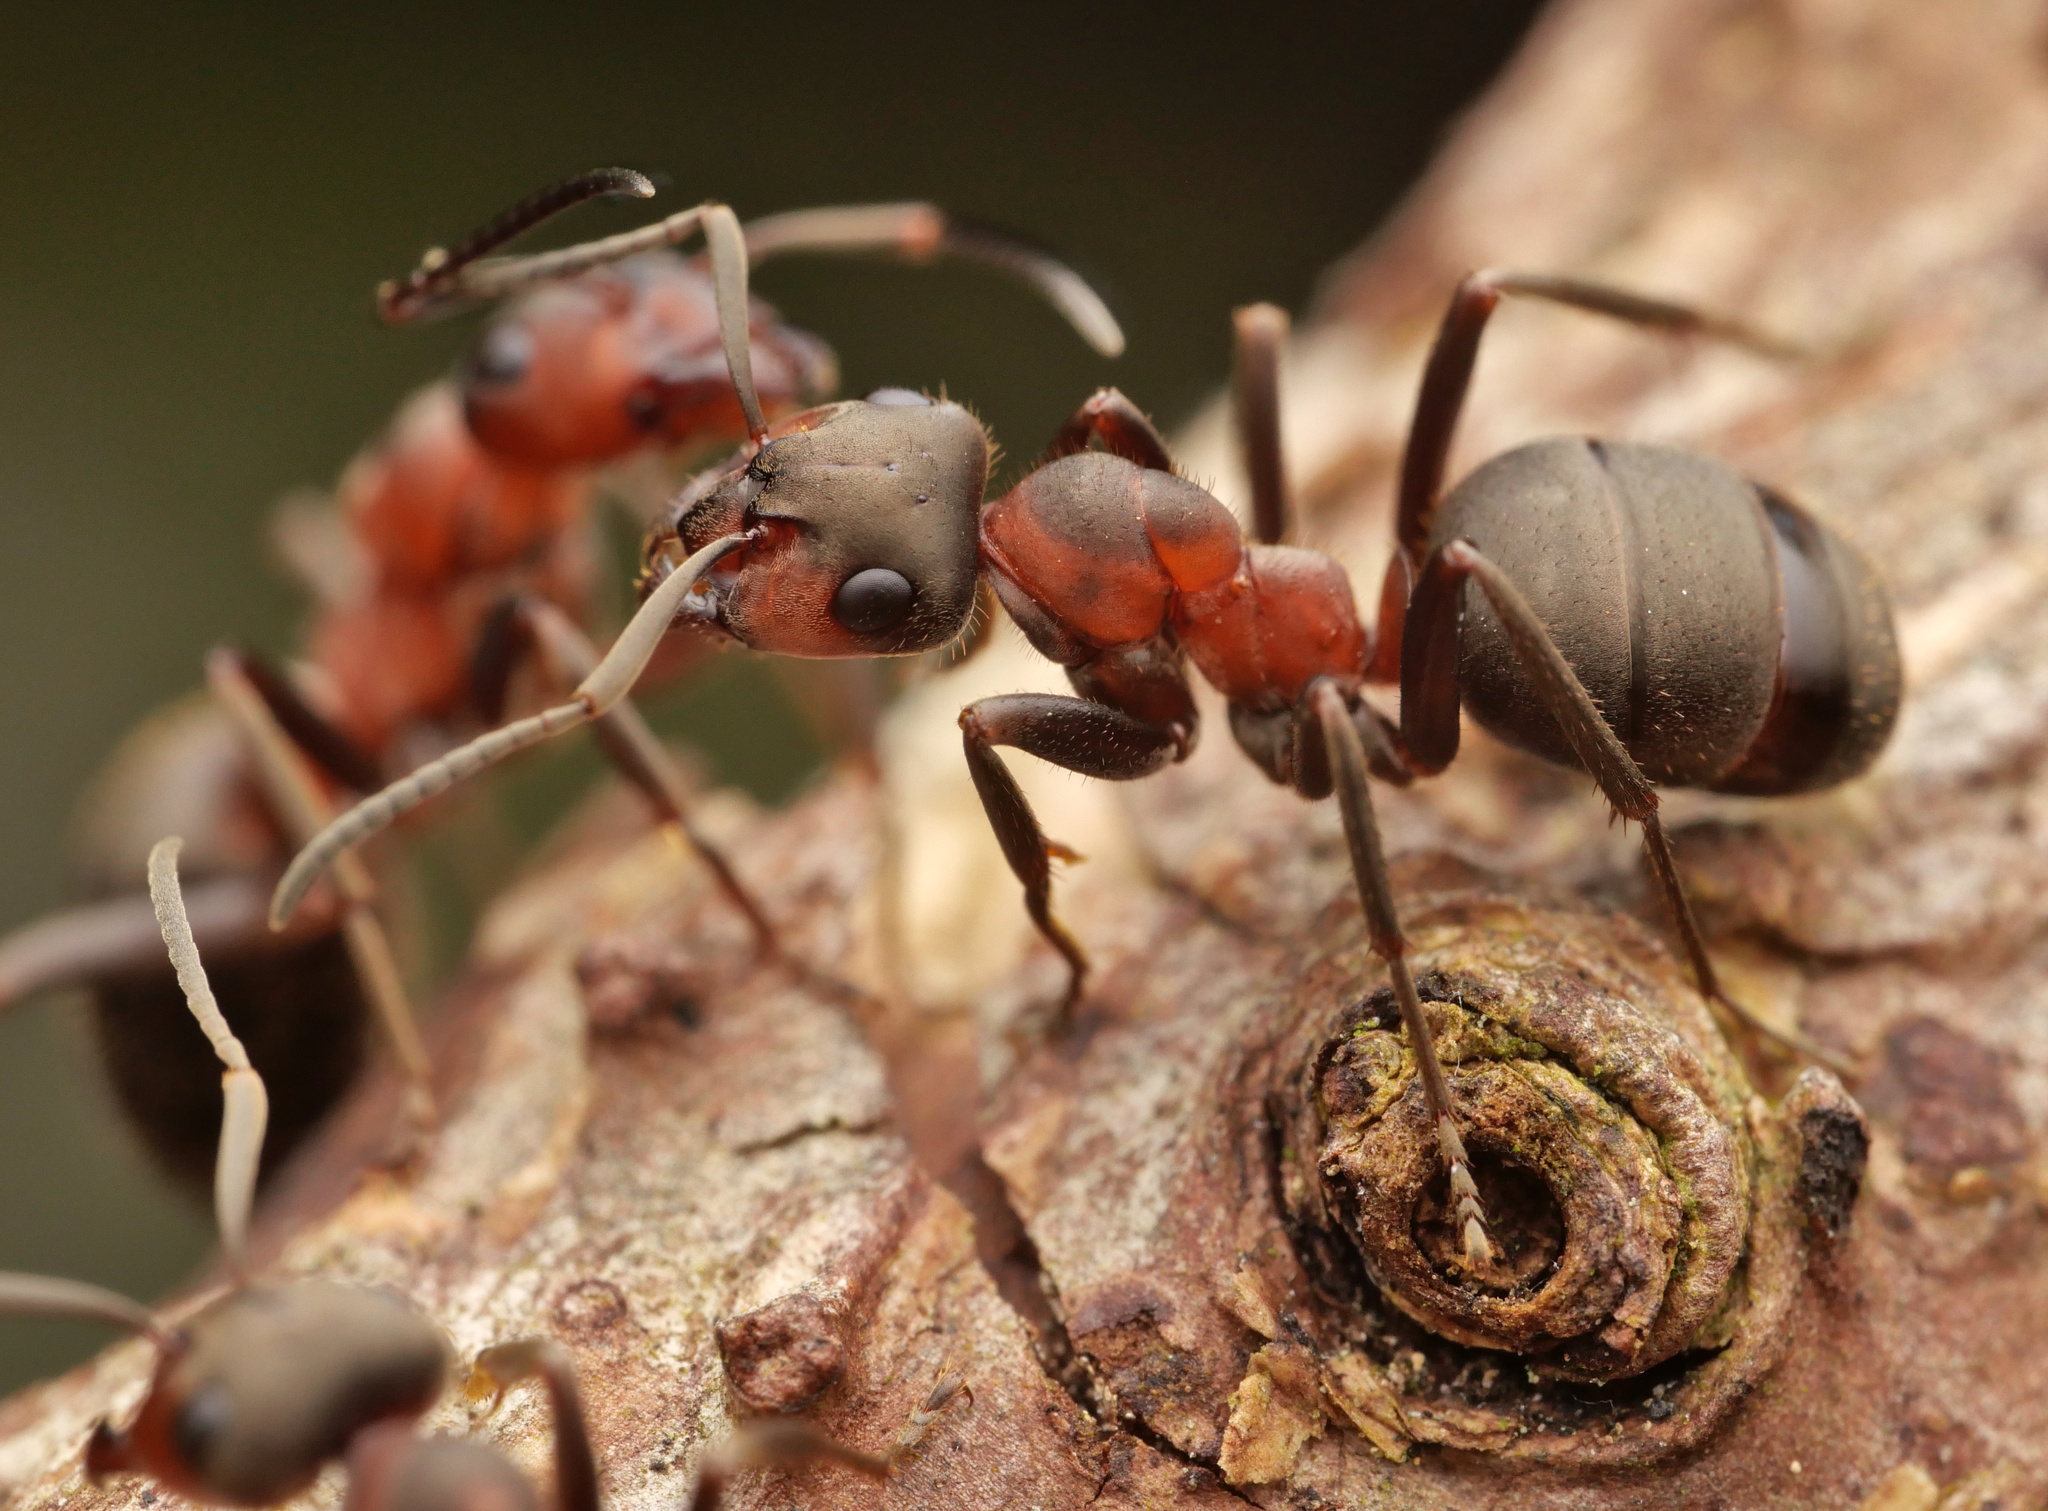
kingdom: Animalia
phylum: Arthropoda
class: Insecta
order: Hymenoptera
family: Formicidae
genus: Formica
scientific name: Formica lugubris
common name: Sinister mound ant
